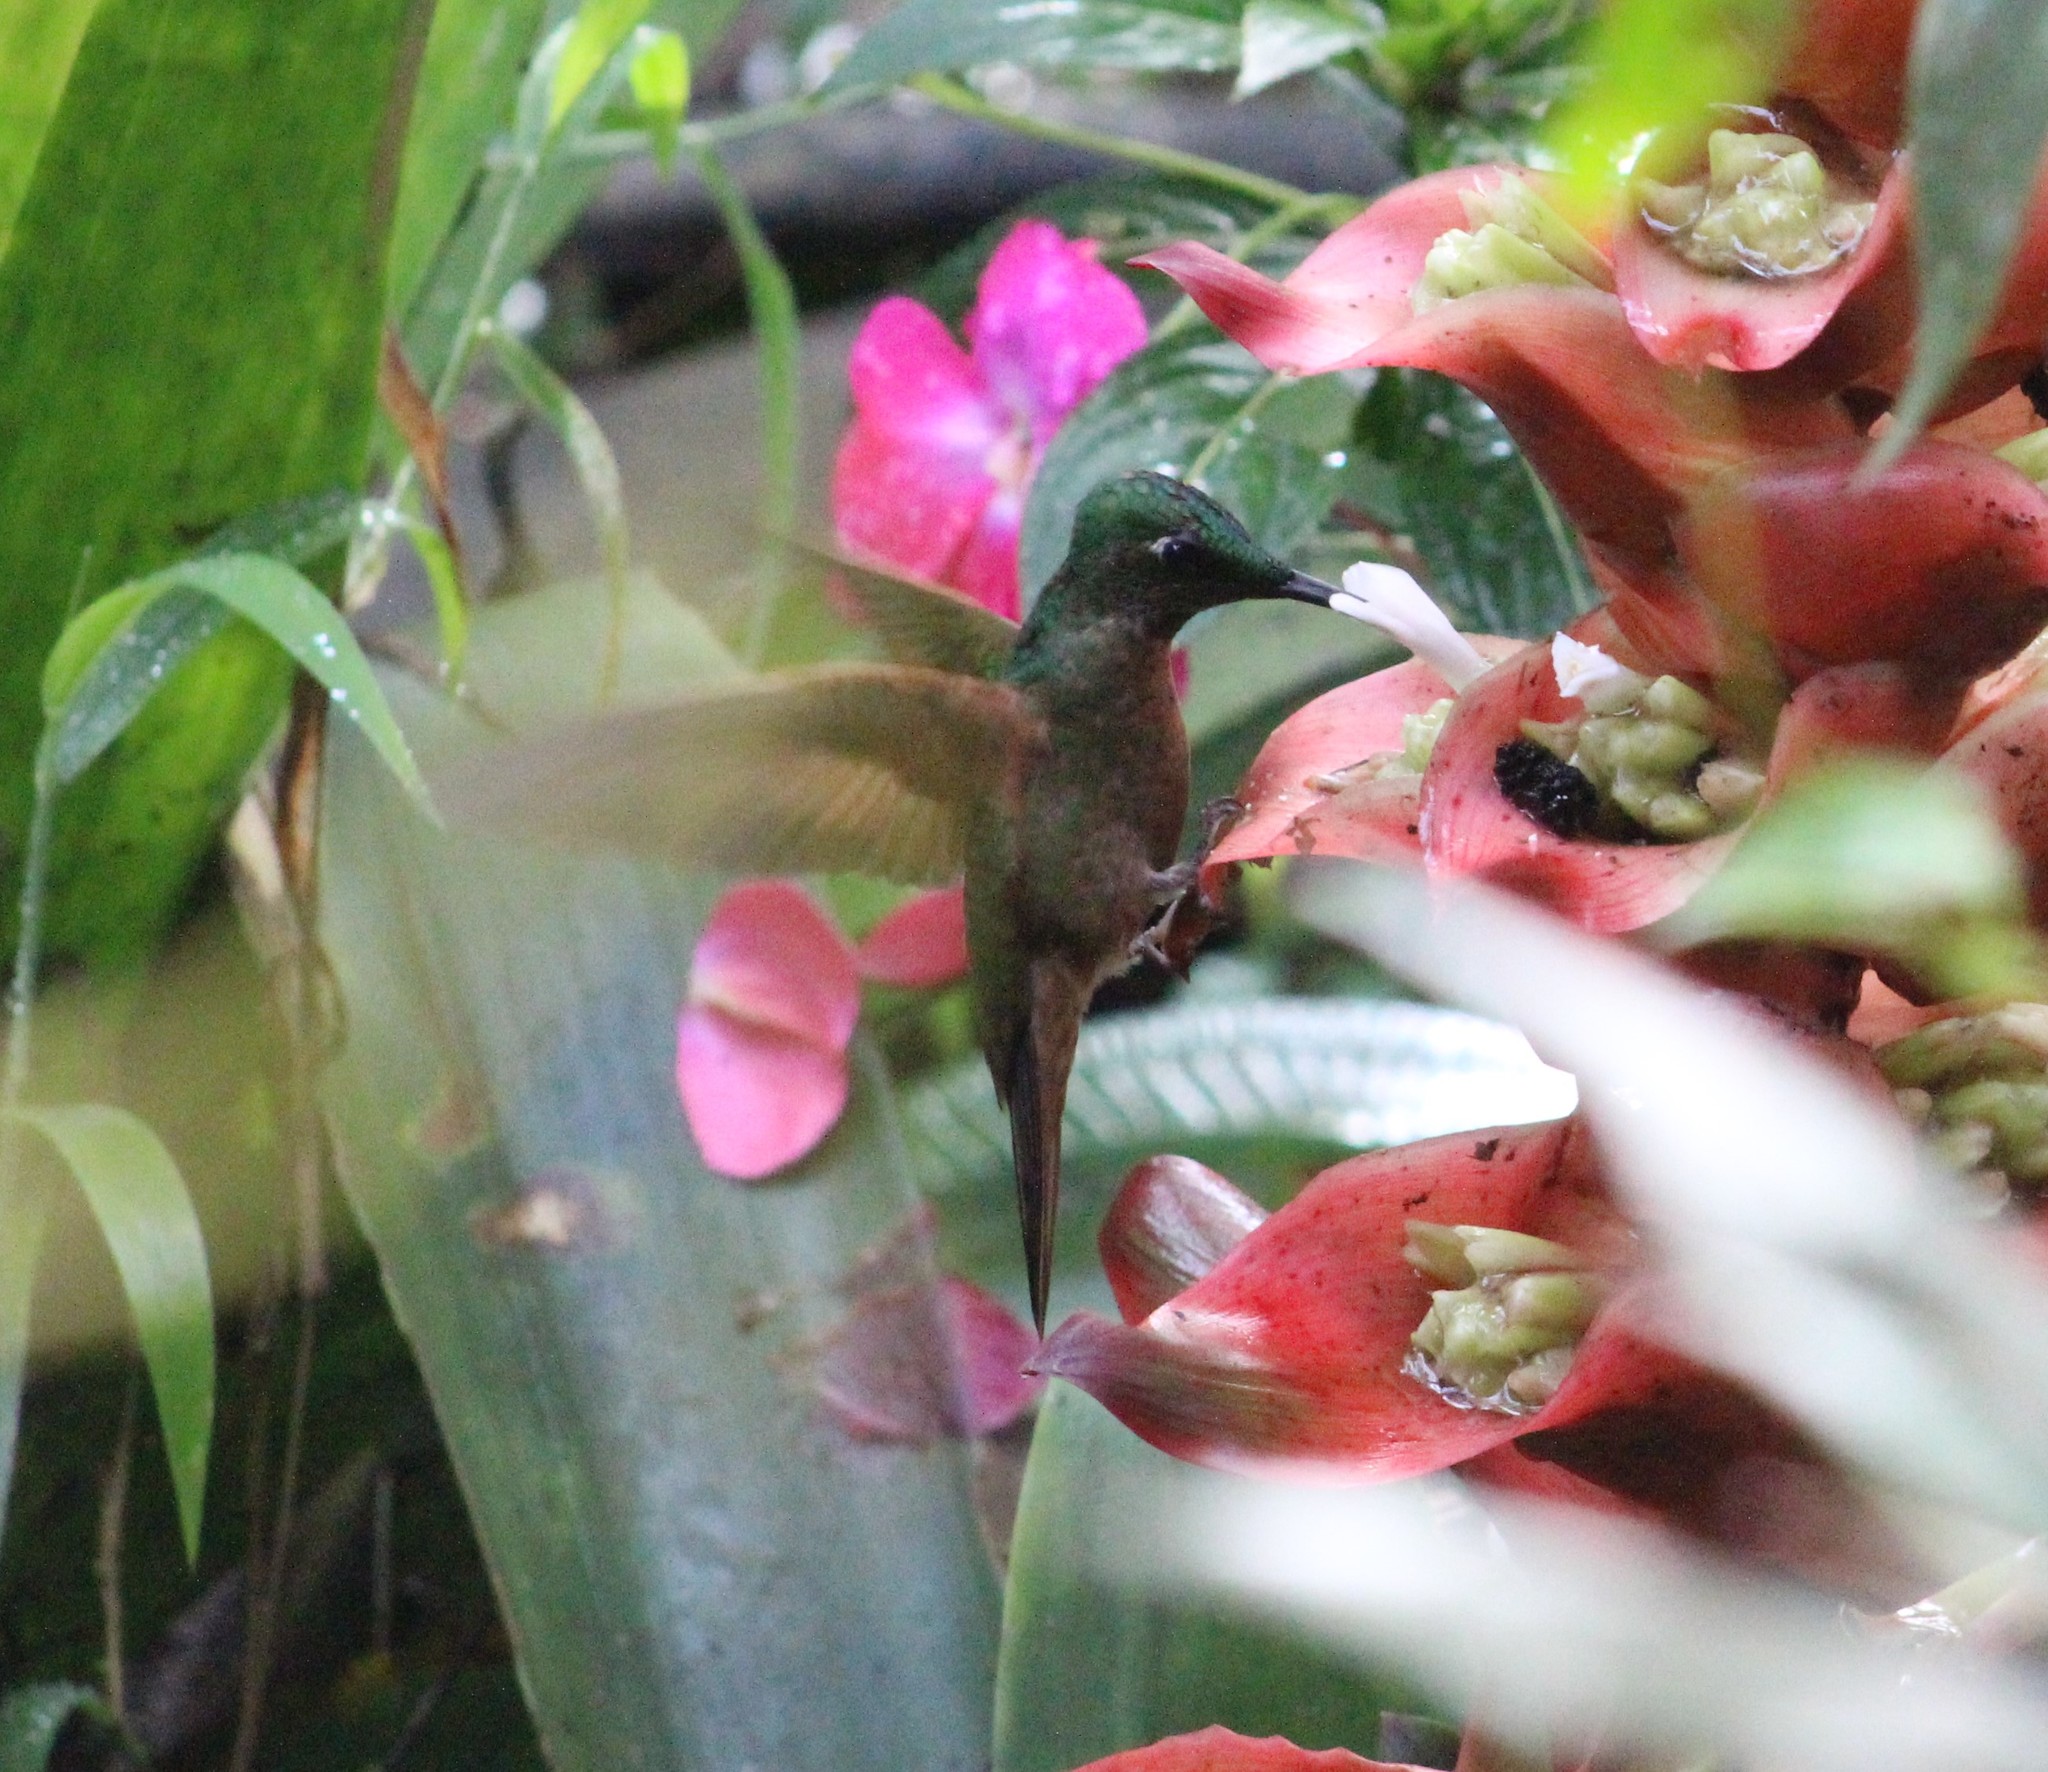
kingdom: Animalia
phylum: Chordata
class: Aves
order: Apodiformes
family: Trochilidae
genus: Heliodoxa
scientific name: Heliodoxa rubinoides
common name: Fawn-breasted brilliant
